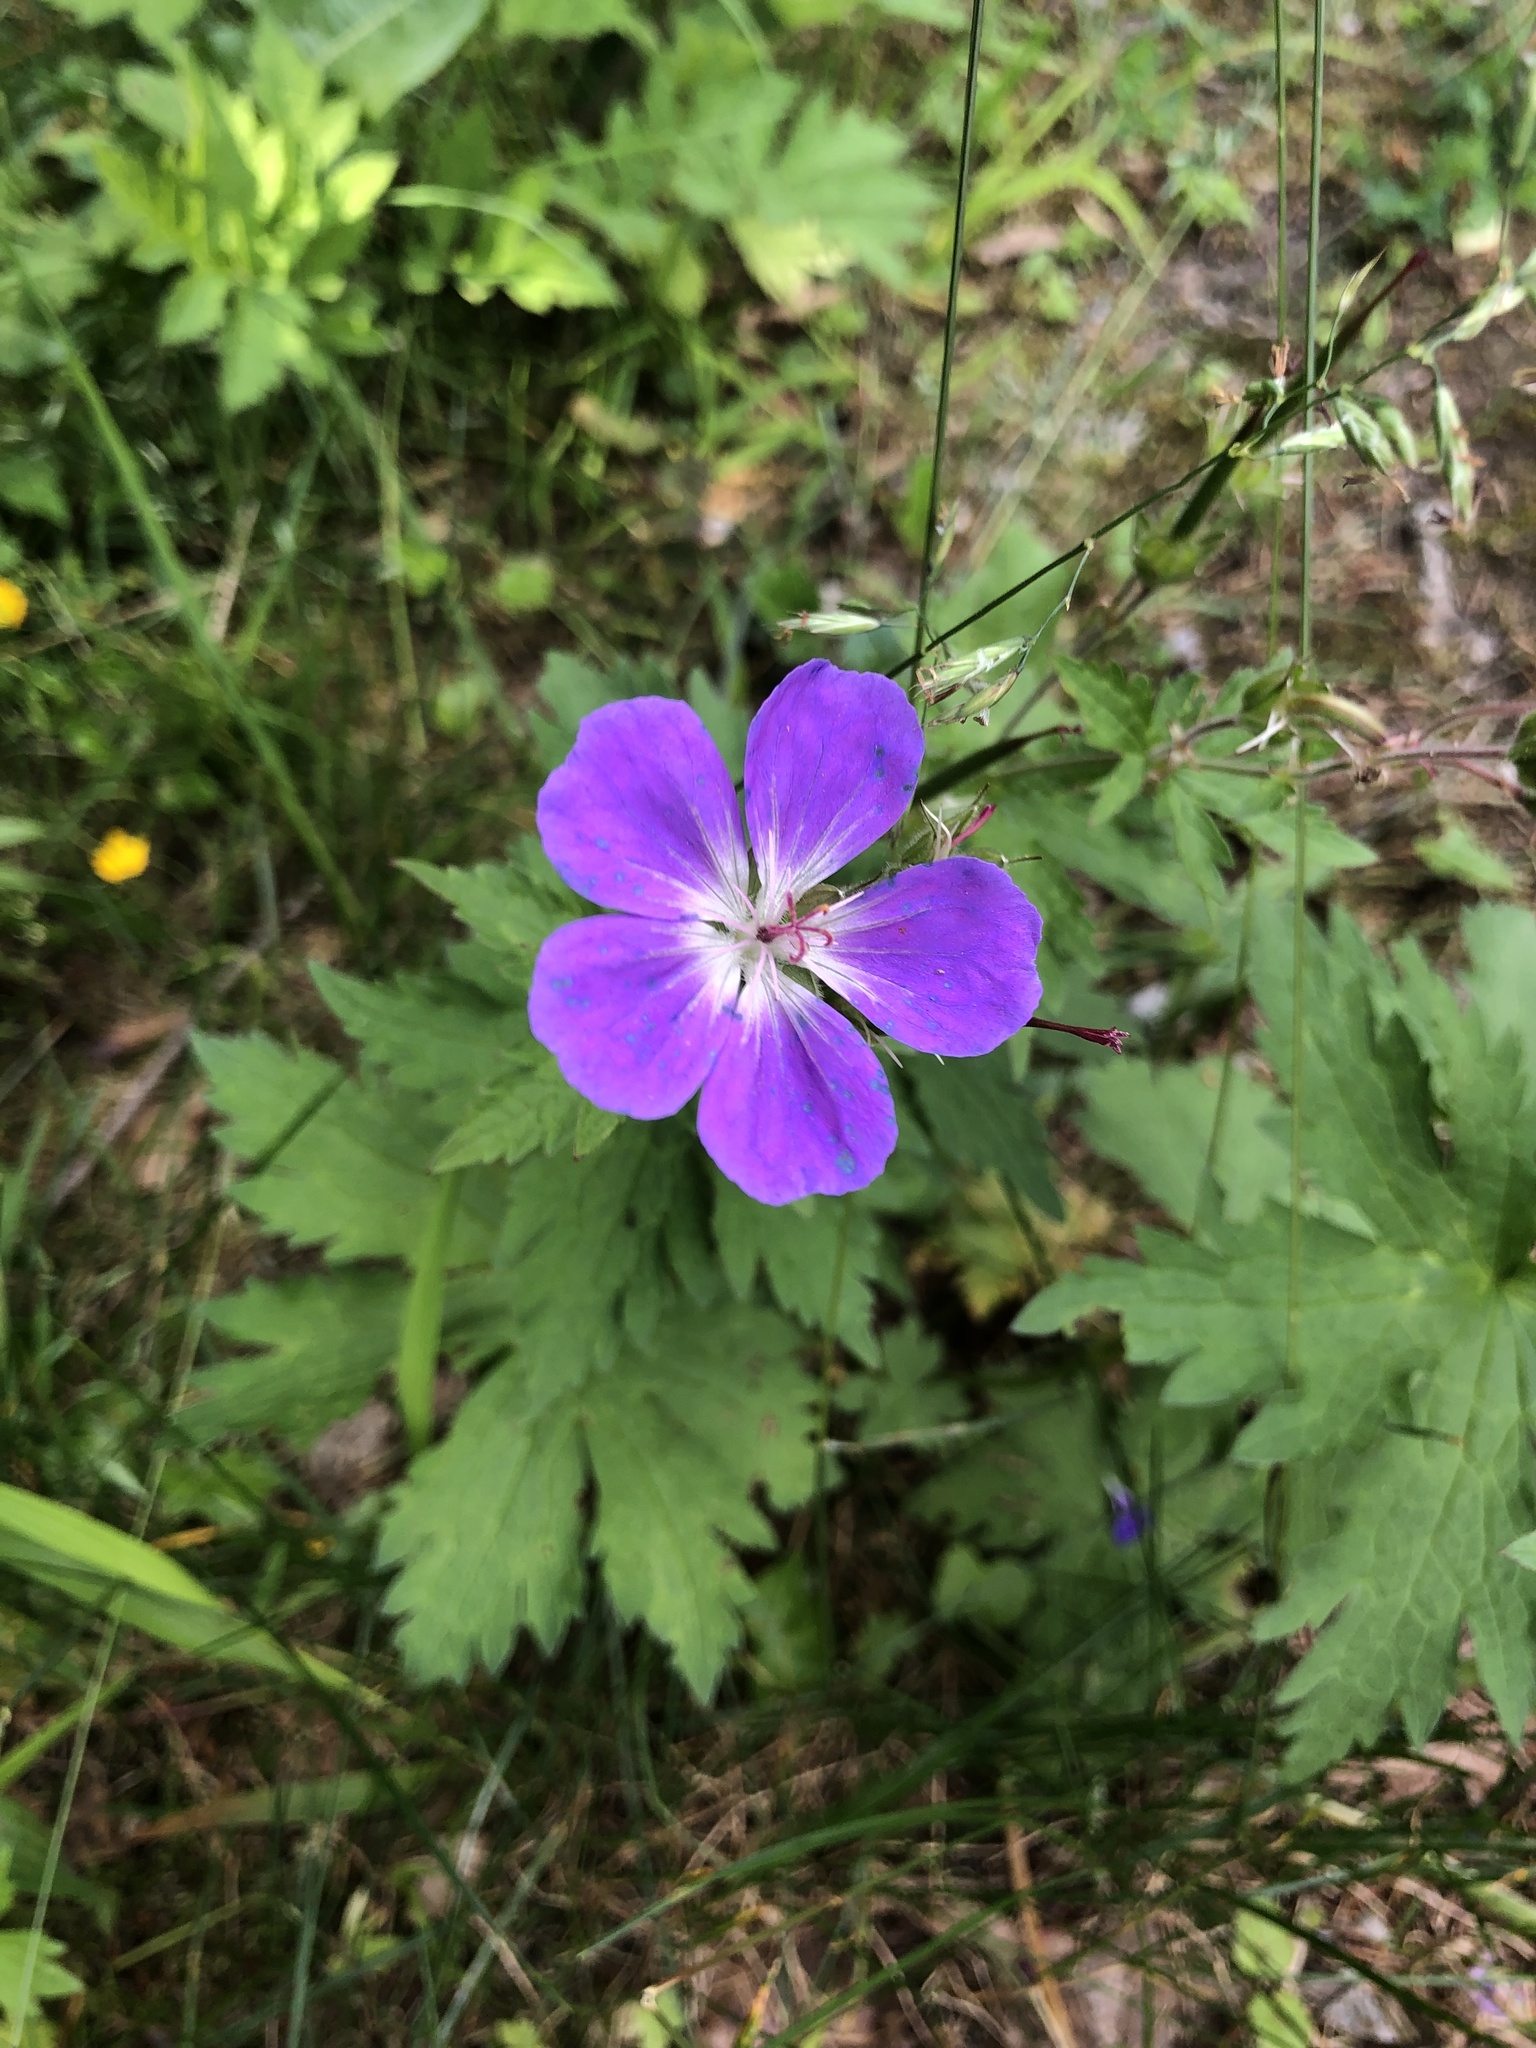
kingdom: Plantae
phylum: Tracheophyta
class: Magnoliopsida
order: Geraniales
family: Geraniaceae
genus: Geranium
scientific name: Geranium sylvaticum
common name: Wood crane's-bill
